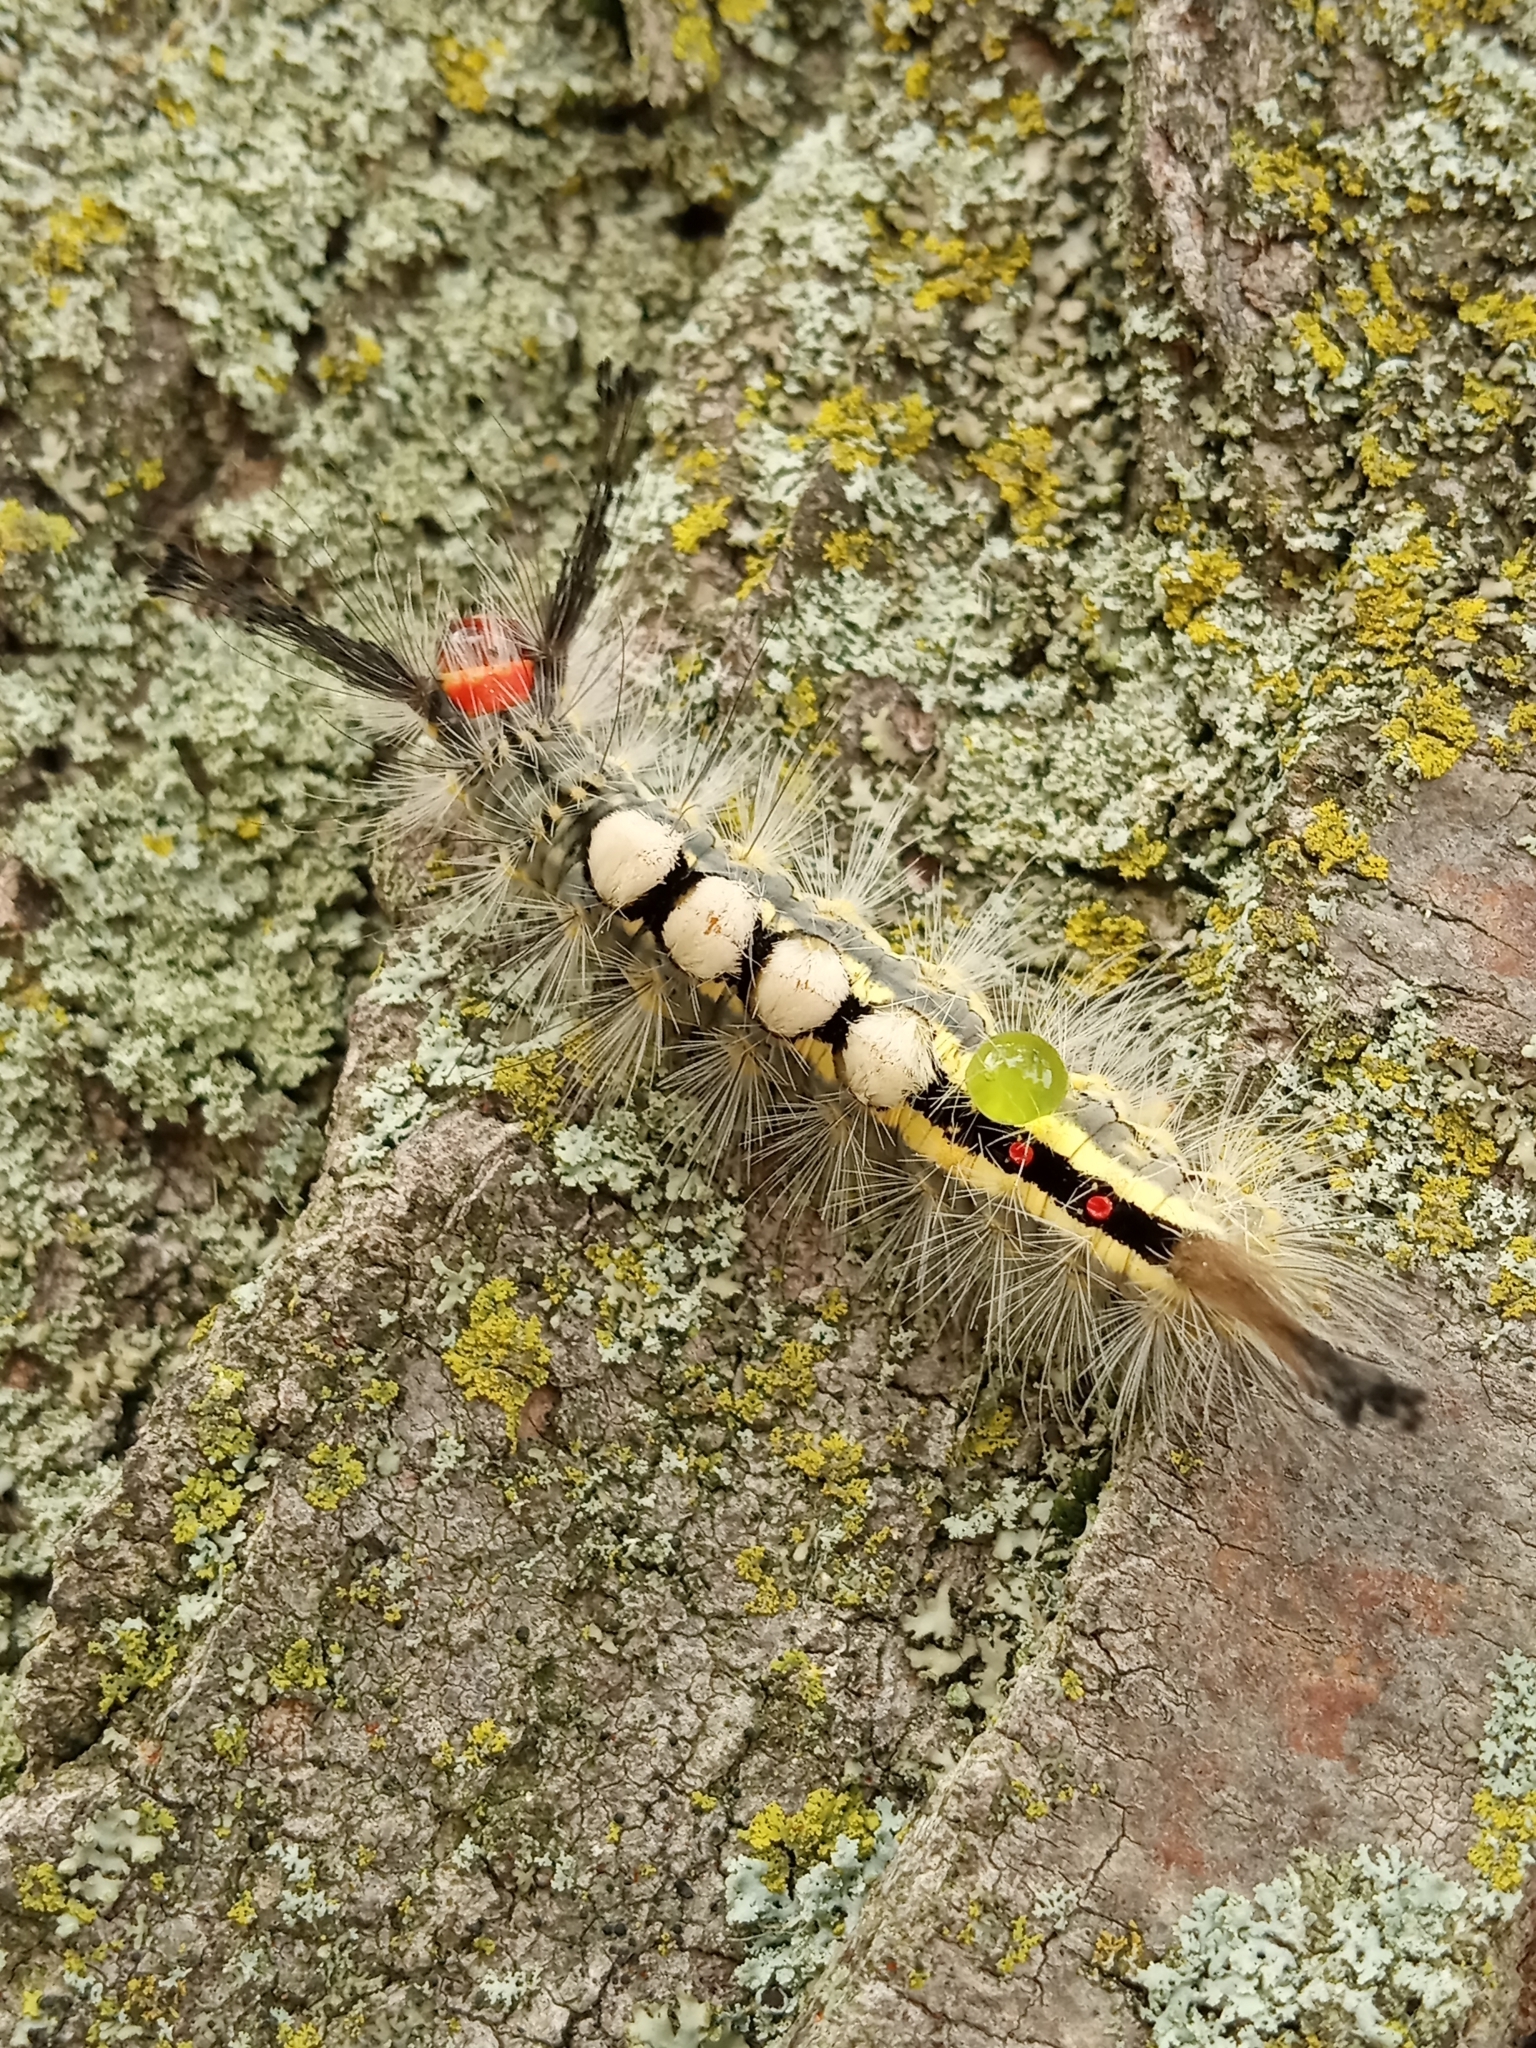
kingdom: Animalia
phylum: Arthropoda
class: Insecta
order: Lepidoptera
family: Erebidae
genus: Orgyia
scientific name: Orgyia leucostigma
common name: White-marked tussock moth
